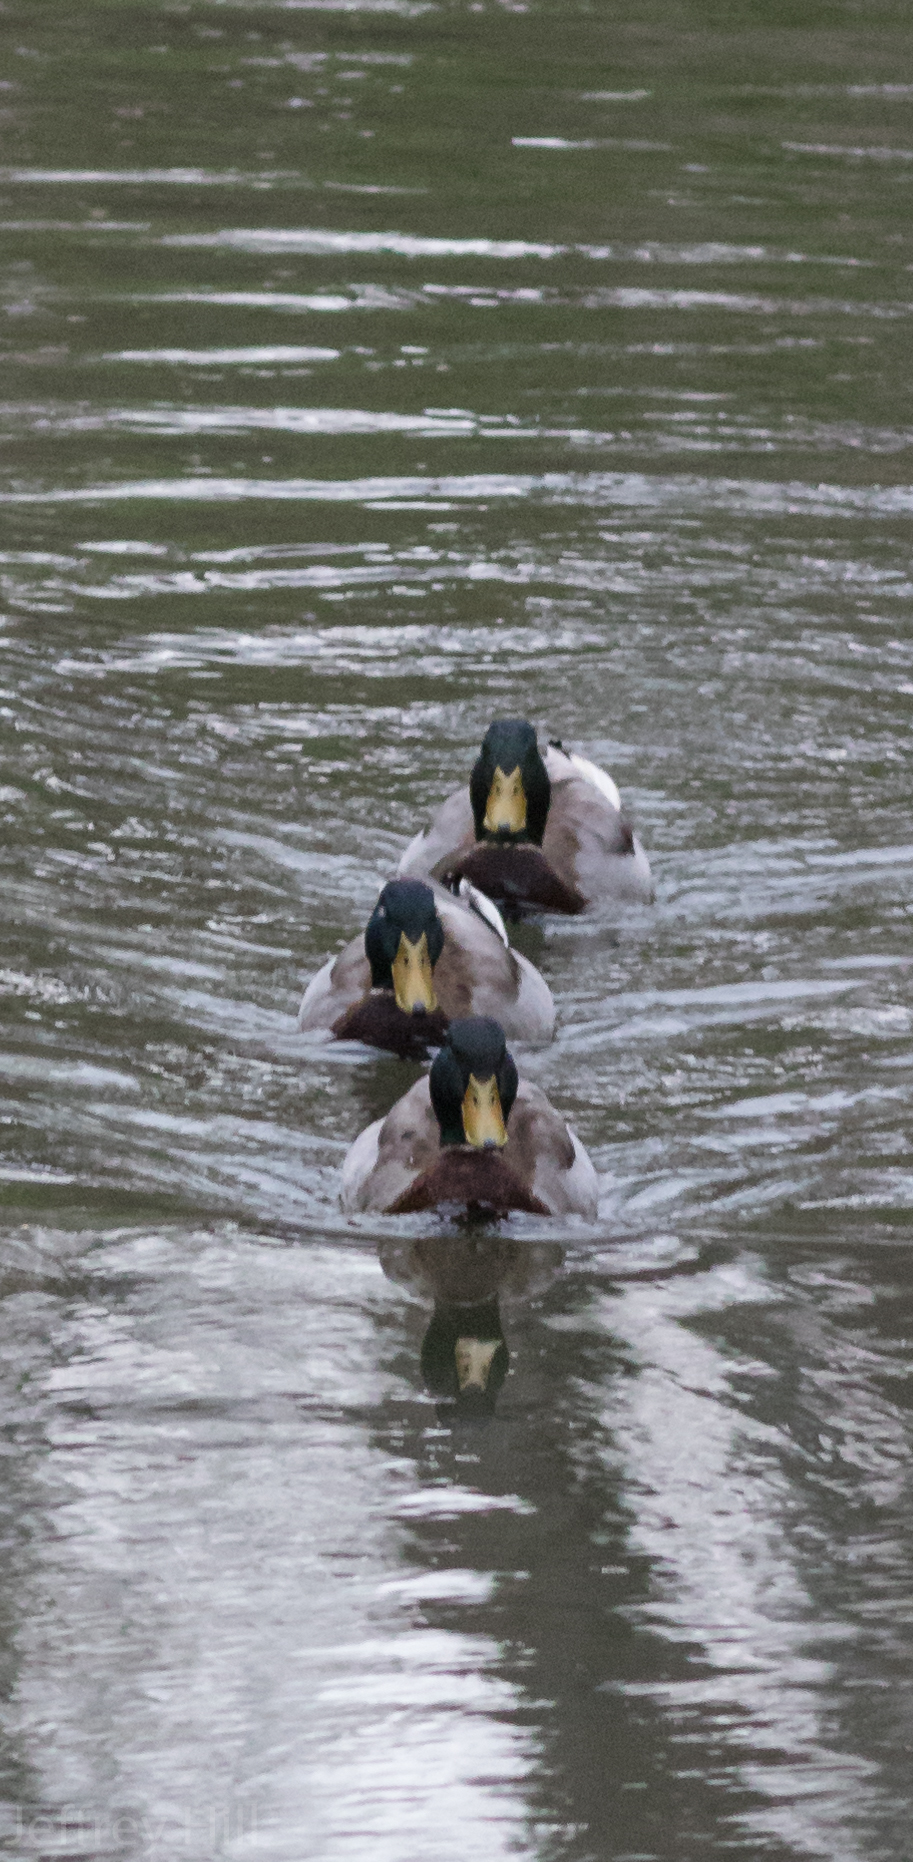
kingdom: Animalia
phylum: Chordata
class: Aves
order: Anseriformes
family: Anatidae
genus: Anas
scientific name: Anas platyrhynchos
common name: Mallard
